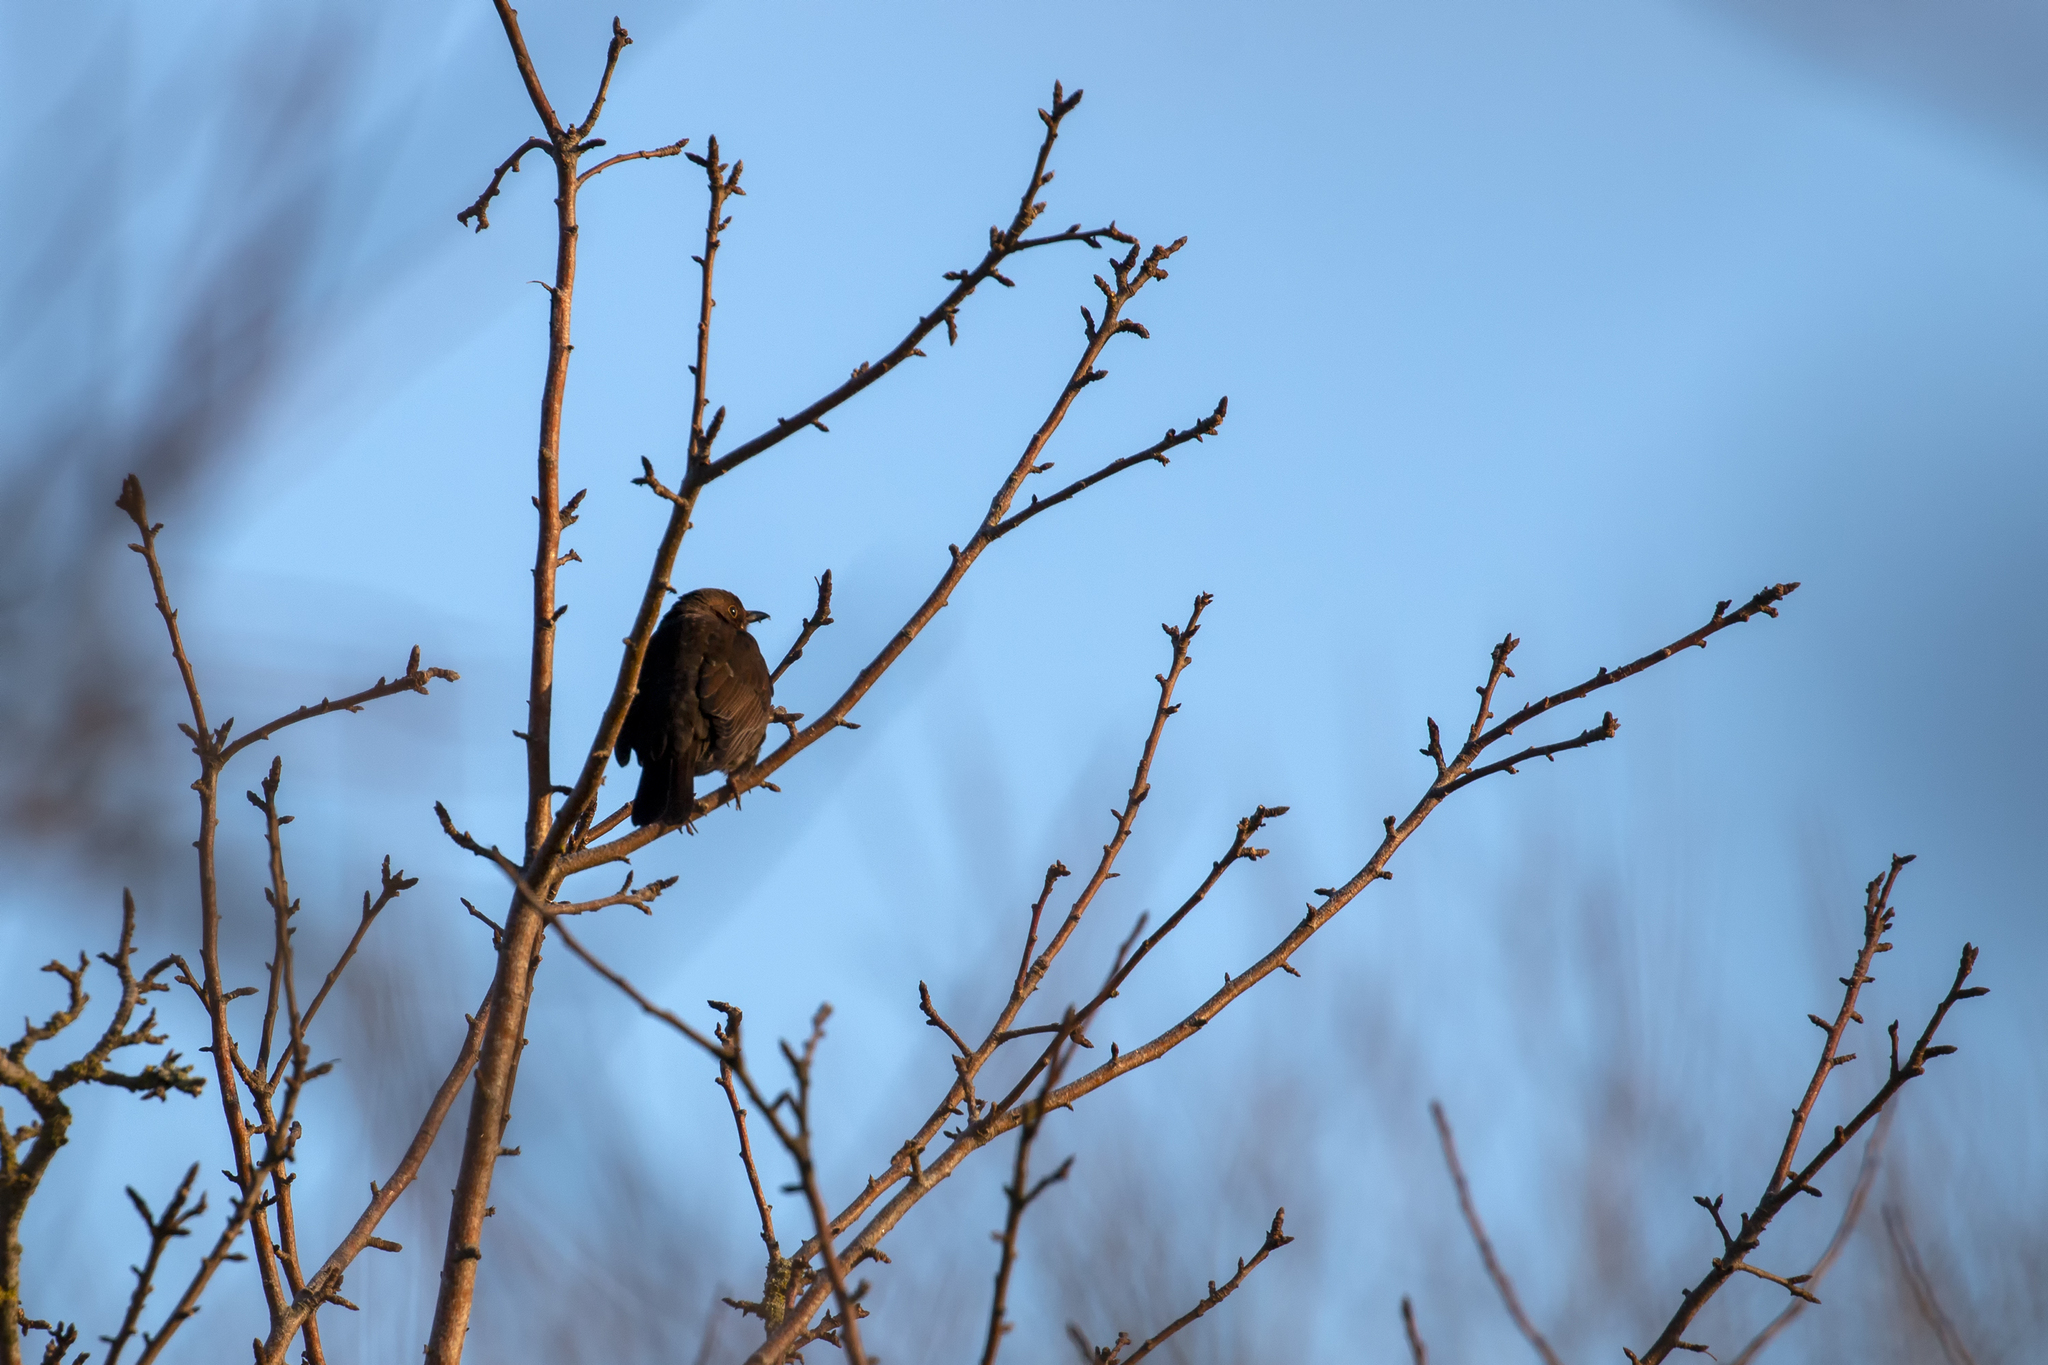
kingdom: Animalia
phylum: Chordata
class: Aves
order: Passeriformes
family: Turdidae
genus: Turdus
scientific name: Turdus merula
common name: Common blackbird
